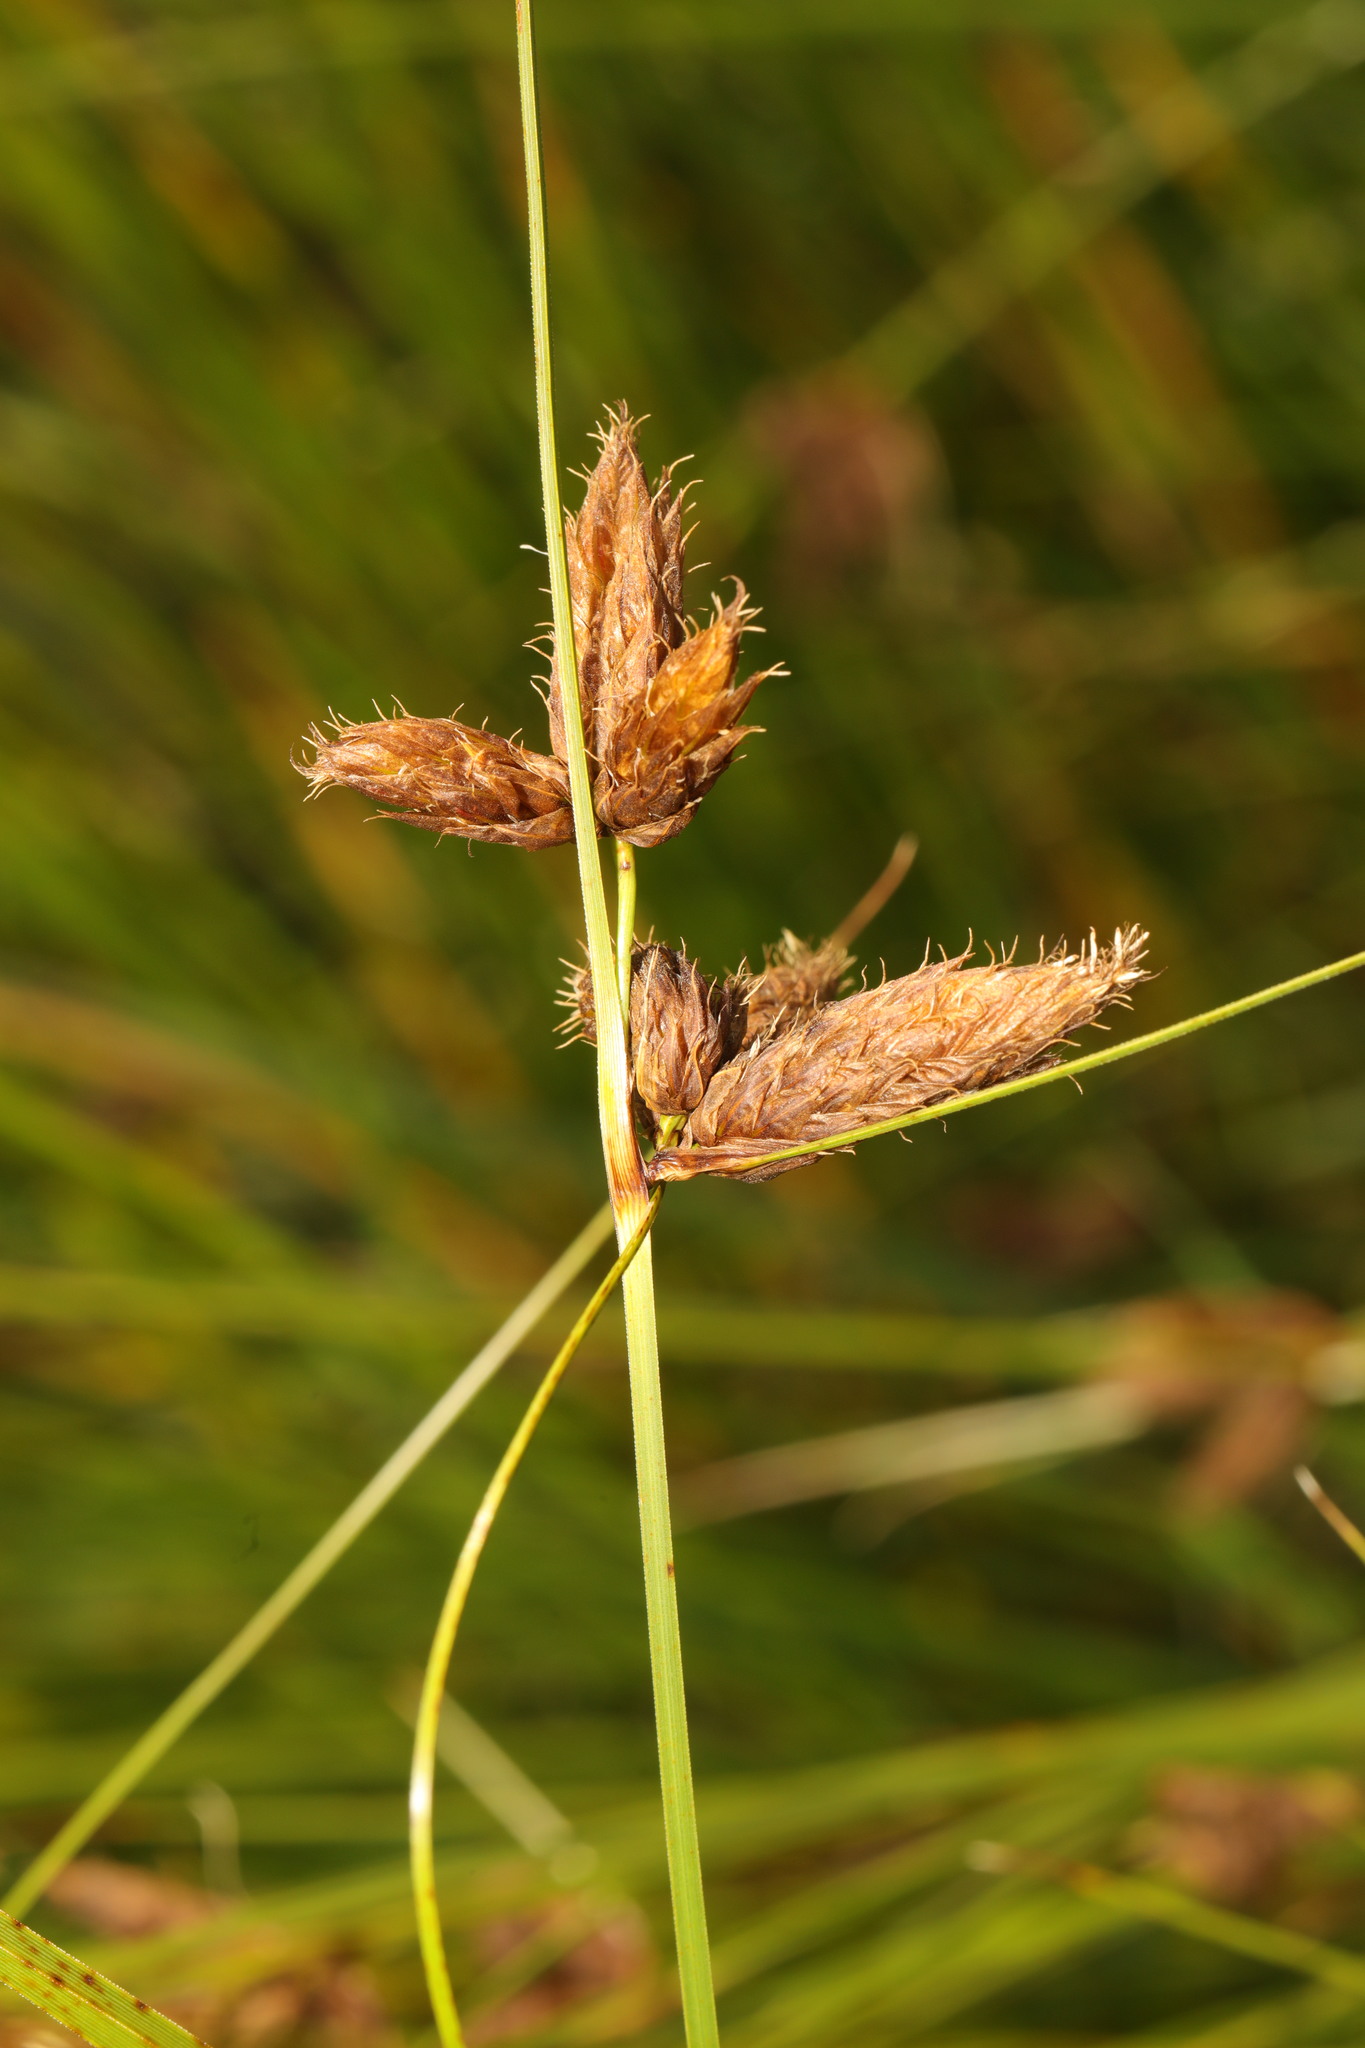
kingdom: Plantae
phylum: Tracheophyta
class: Liliopsida
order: Poales
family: Cyperaceae
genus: Bolboschoenus
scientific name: Bolboschoenus maritimus
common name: Sea club-rush
